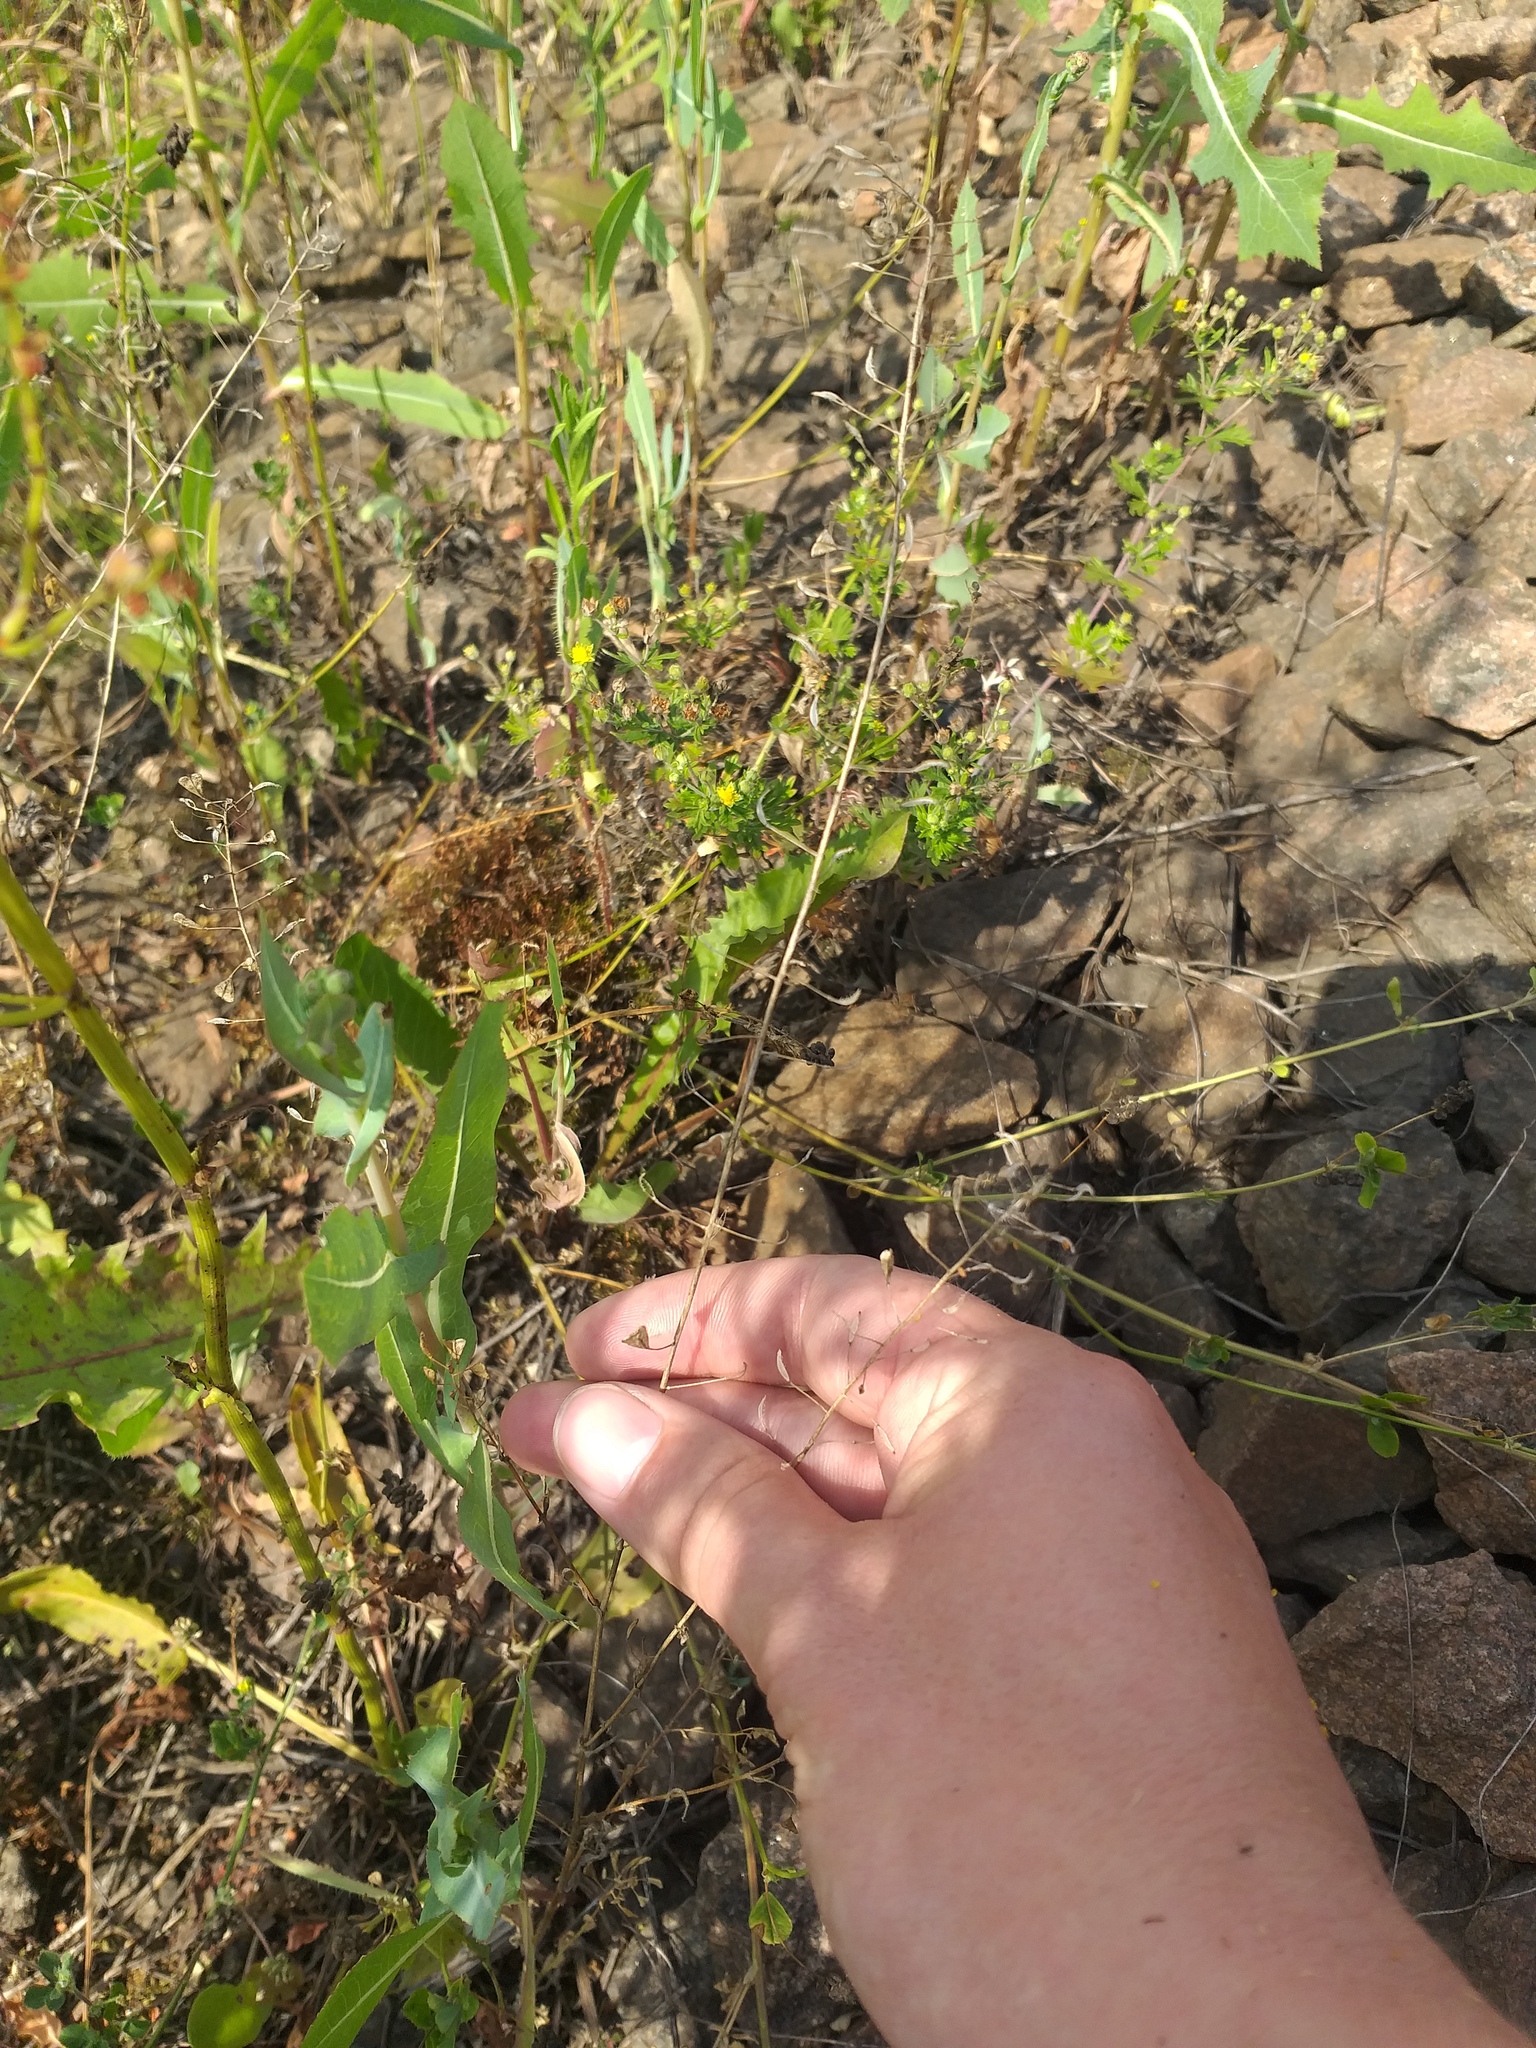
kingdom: Plantae
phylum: Tracheophyta
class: Magnoliopsida
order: Brassicales
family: Brassicaceae
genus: Capsella
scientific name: Capsella bursa-pastoris
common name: Shepherd's purse
